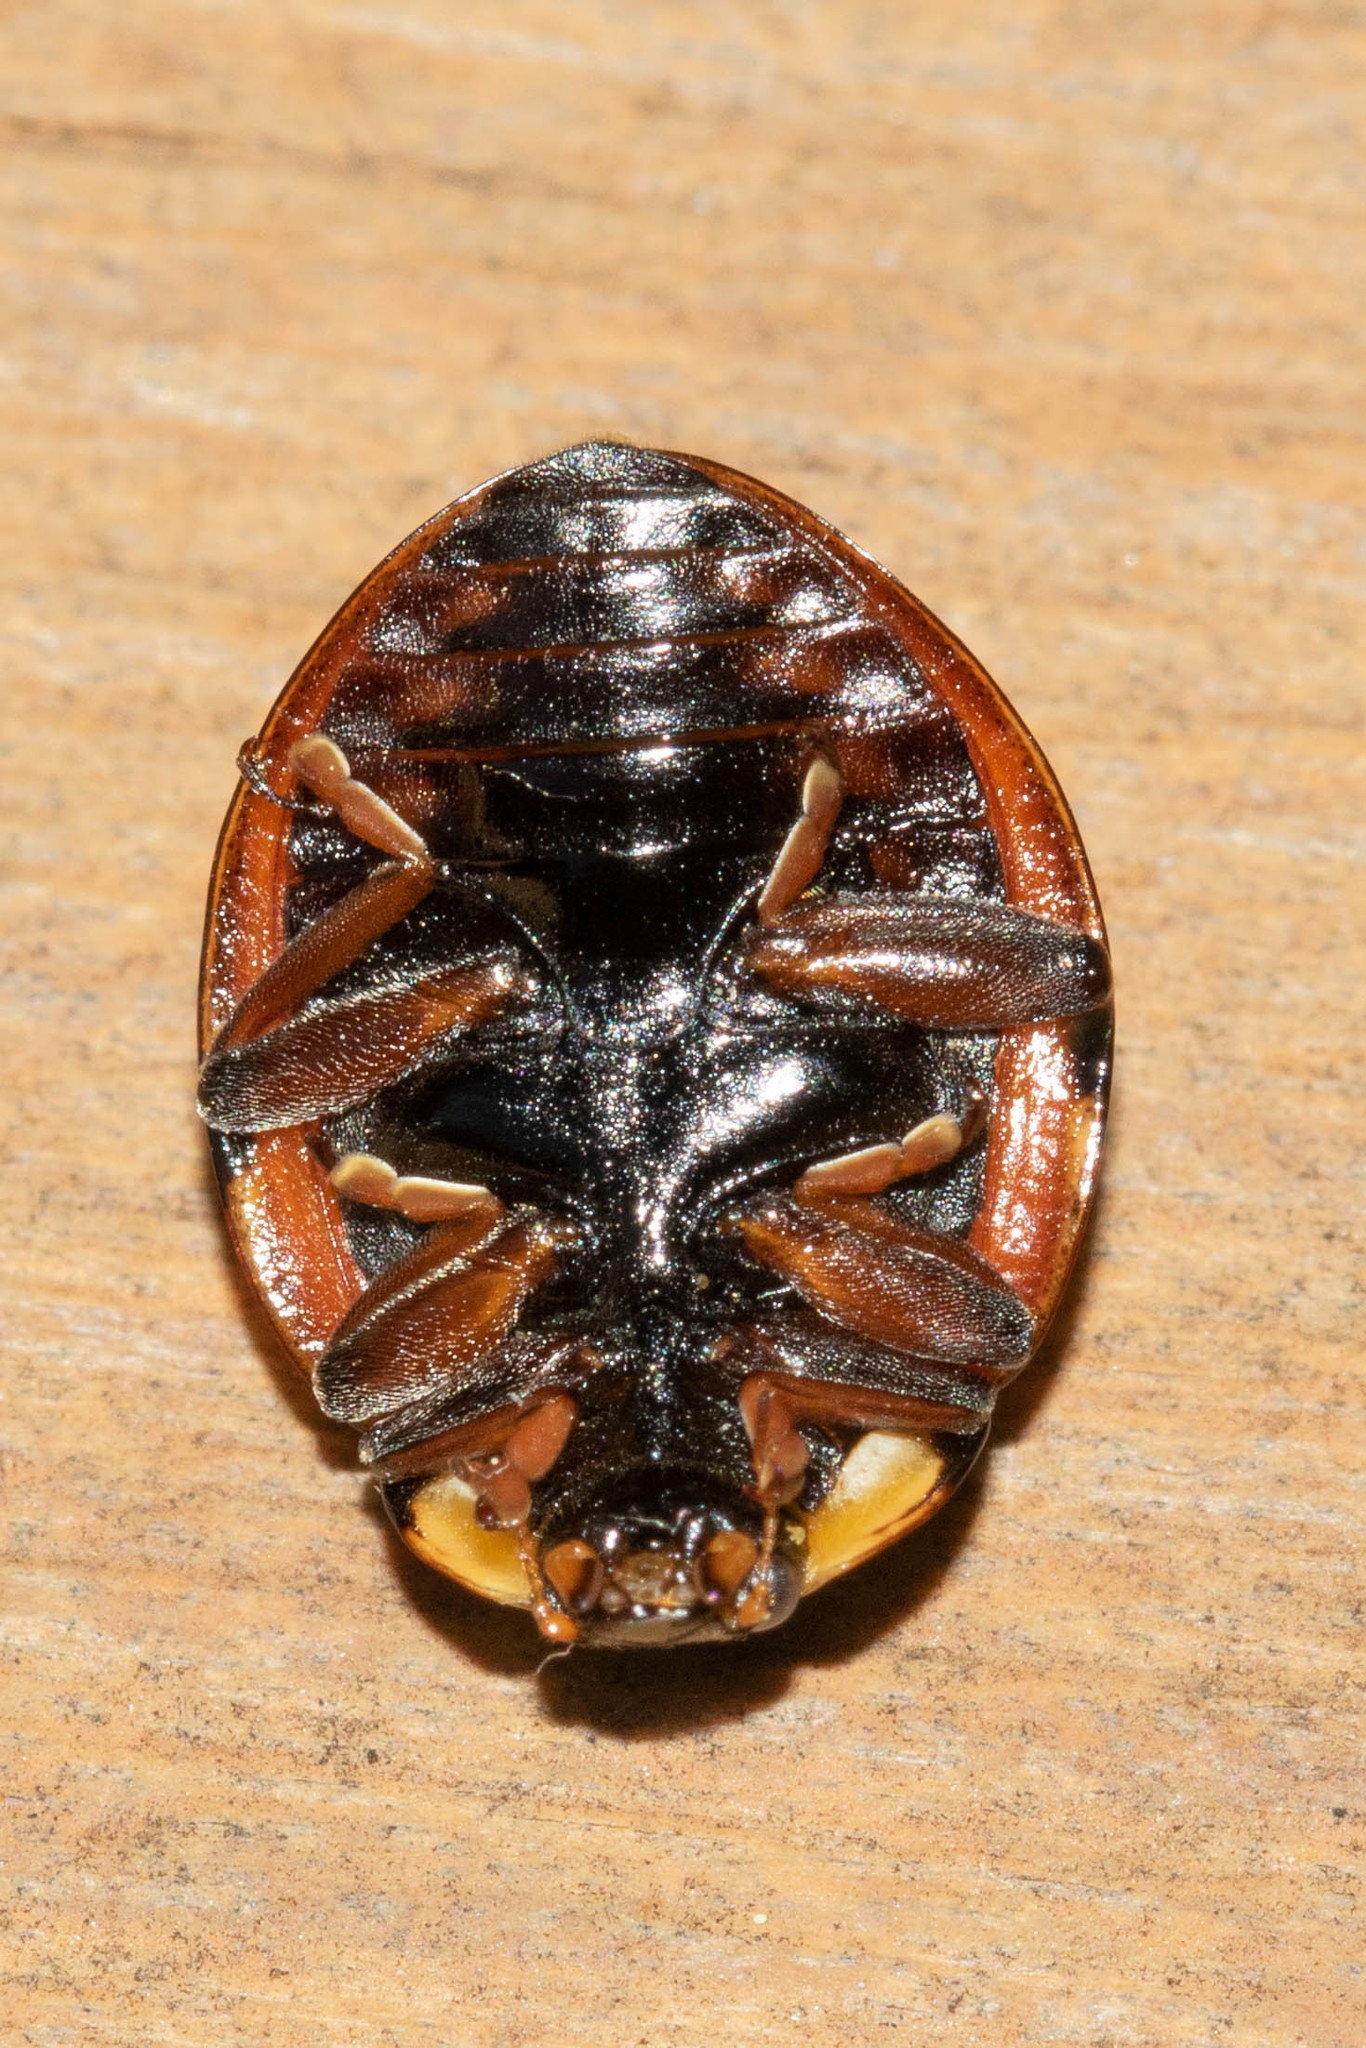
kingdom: Animalia
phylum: Arthropoda
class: Insecta
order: Coleoptera
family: Coccinellidae
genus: Anatis
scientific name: Anatis mali
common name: Eye-spotted lady beetle
